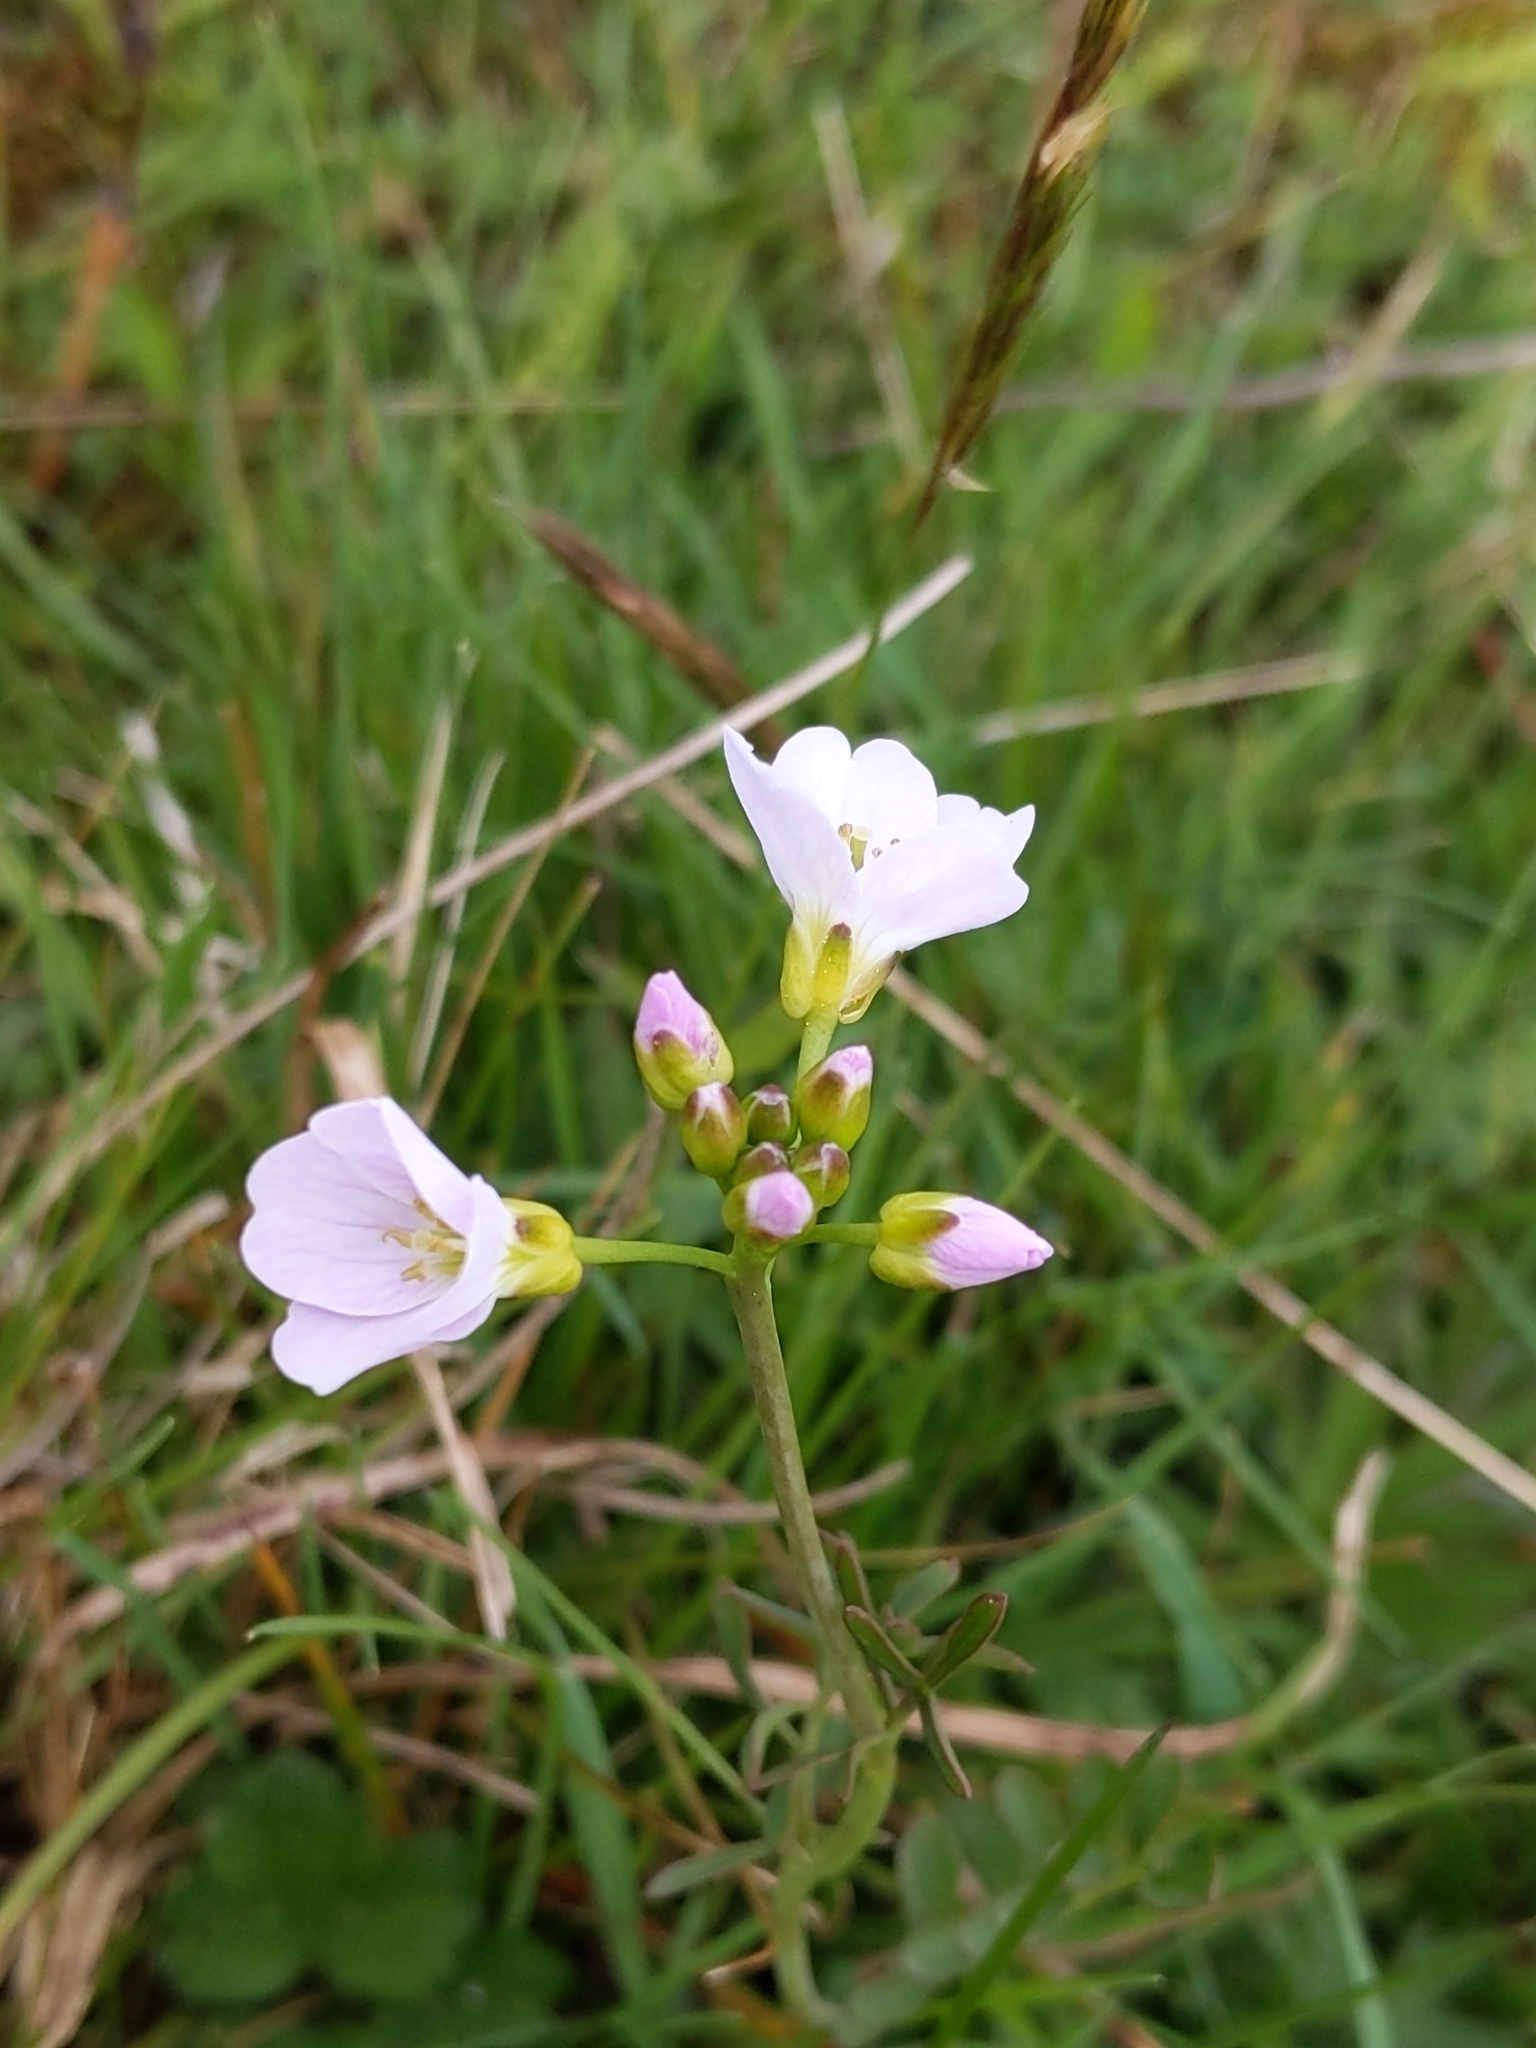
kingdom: Plantae
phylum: Tracheophyta
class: Magnoliopsida
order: Brassicales
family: Brassicaceae
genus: Cardamine
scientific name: Cardamine pratensis
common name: Cuckoo flower
